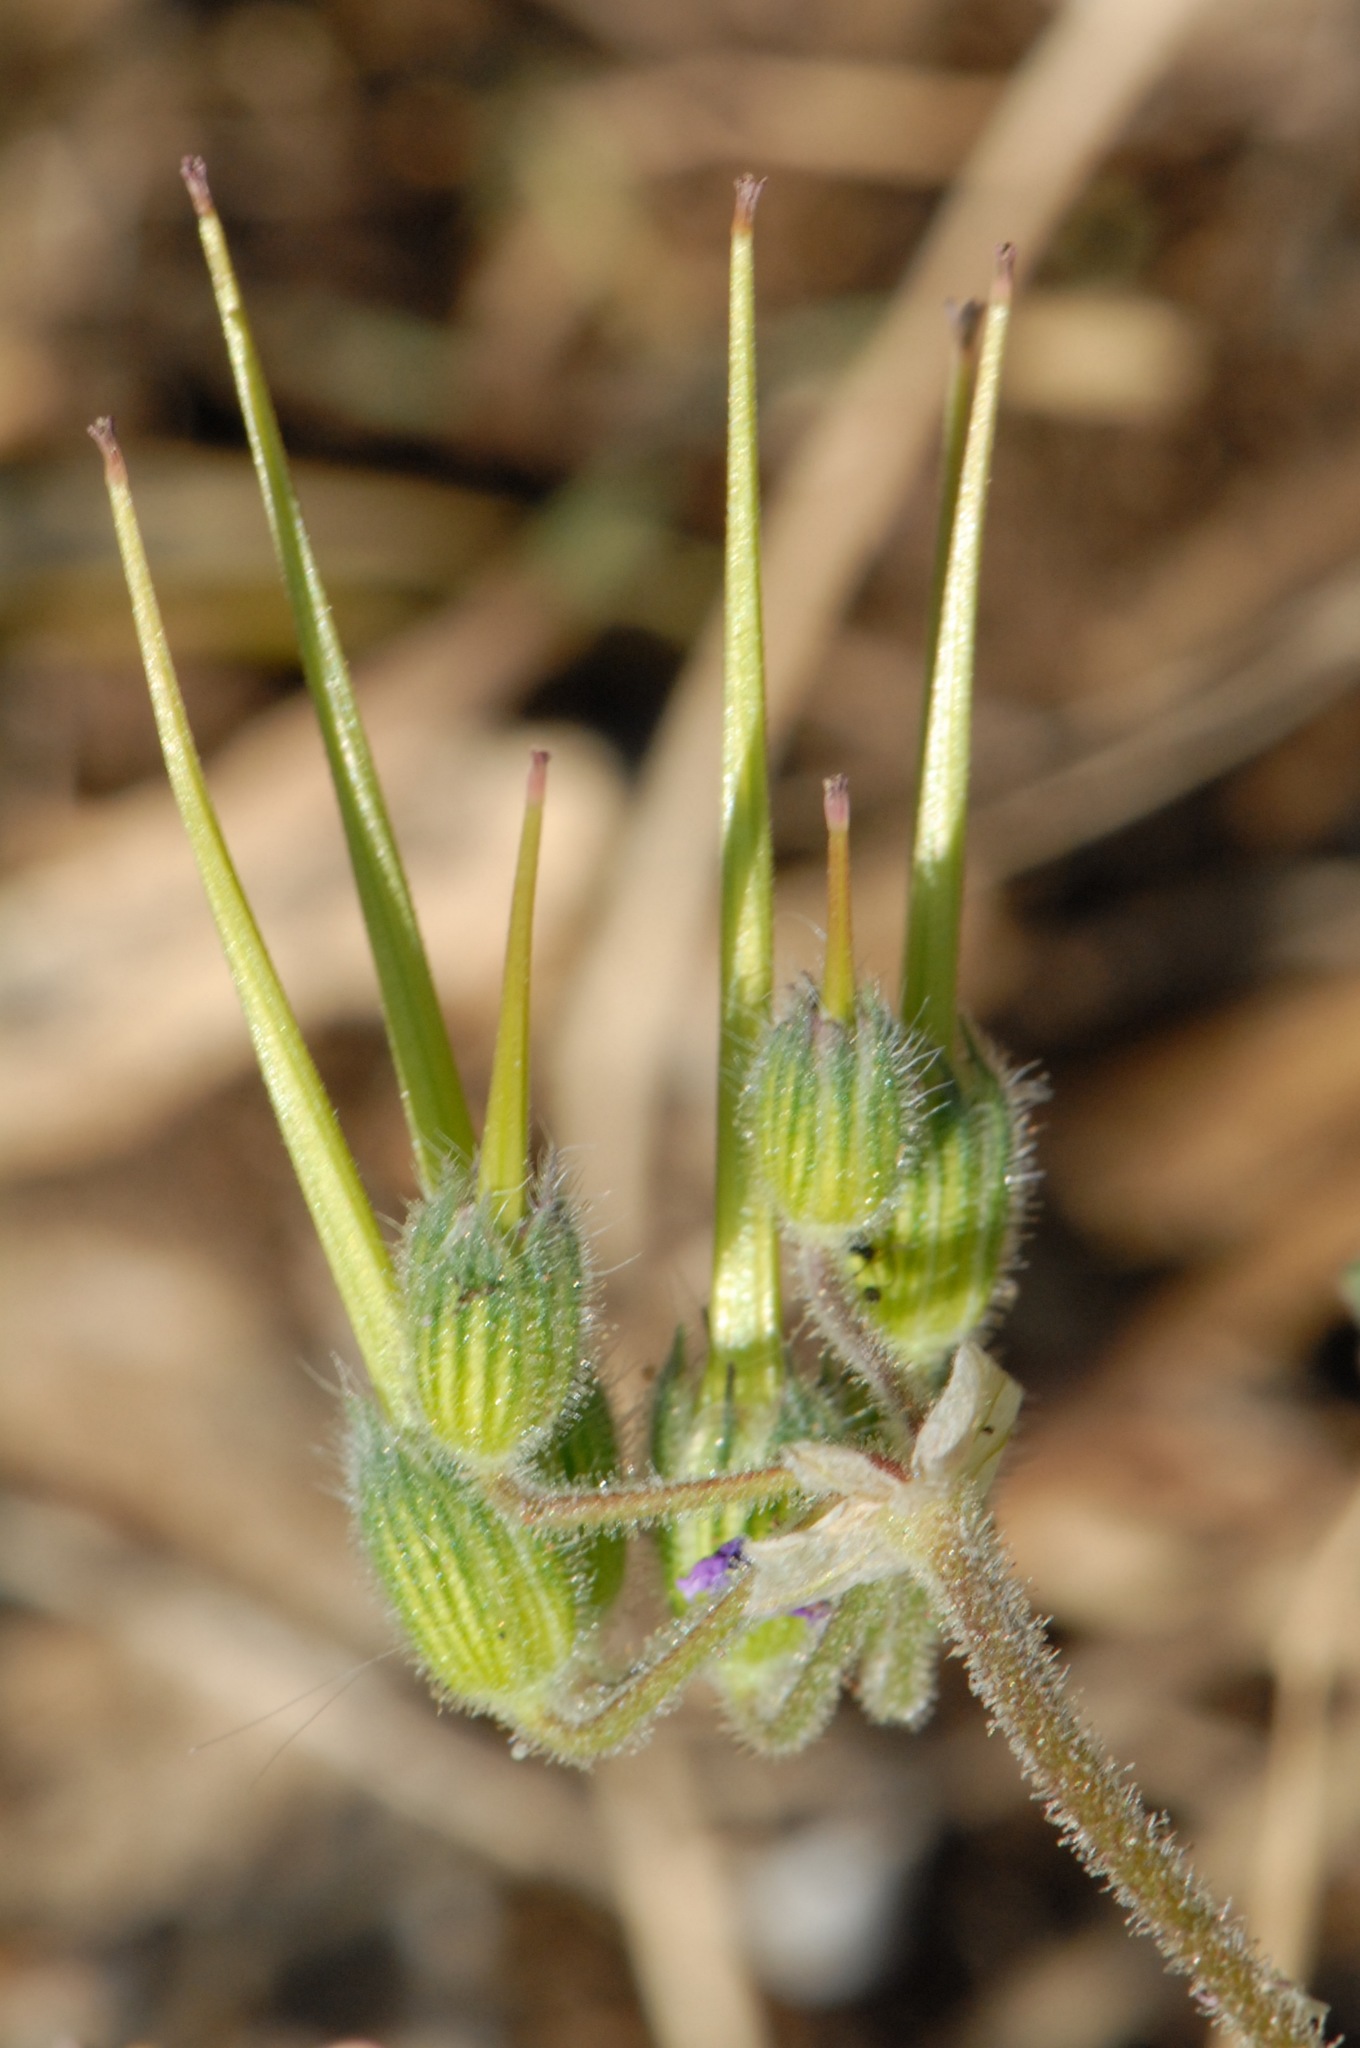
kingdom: Plantae
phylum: Tracheophyta
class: Magnoliopsida
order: Geraniales
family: Geraniaceae
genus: Erodium
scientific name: Erodium chium
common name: Three-lobed stork's-bill
